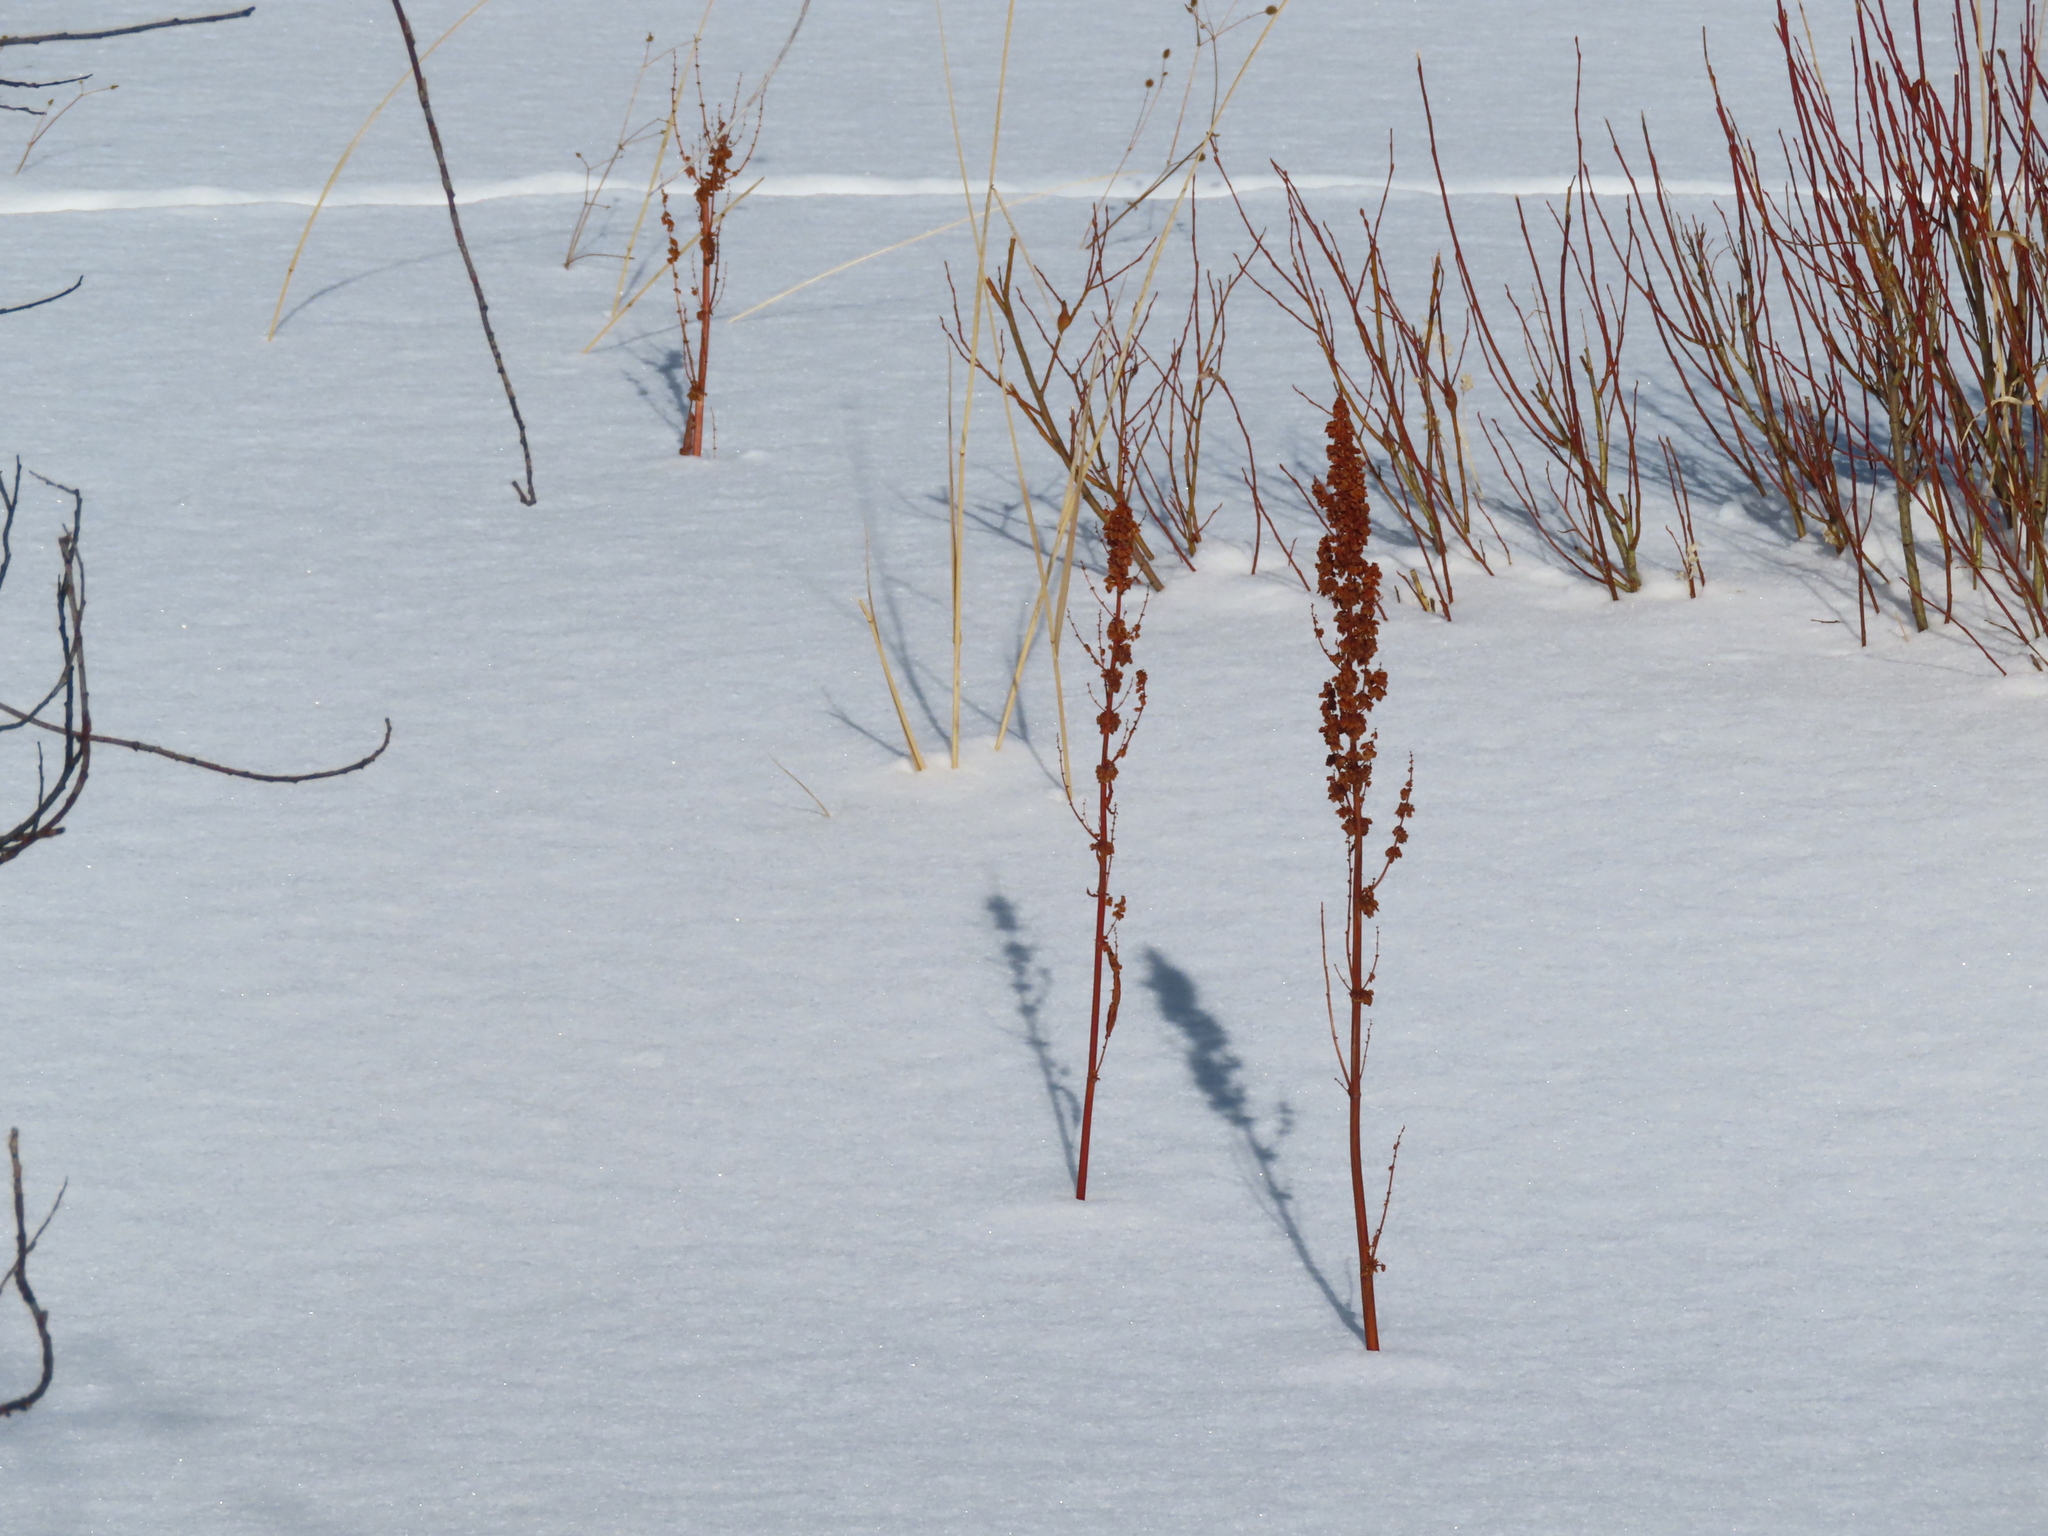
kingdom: Plantae
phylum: Tracheophyta
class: Magnoliopsida
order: Caryophyllales
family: Polygonaceae
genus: Rumex
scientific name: Rumex
